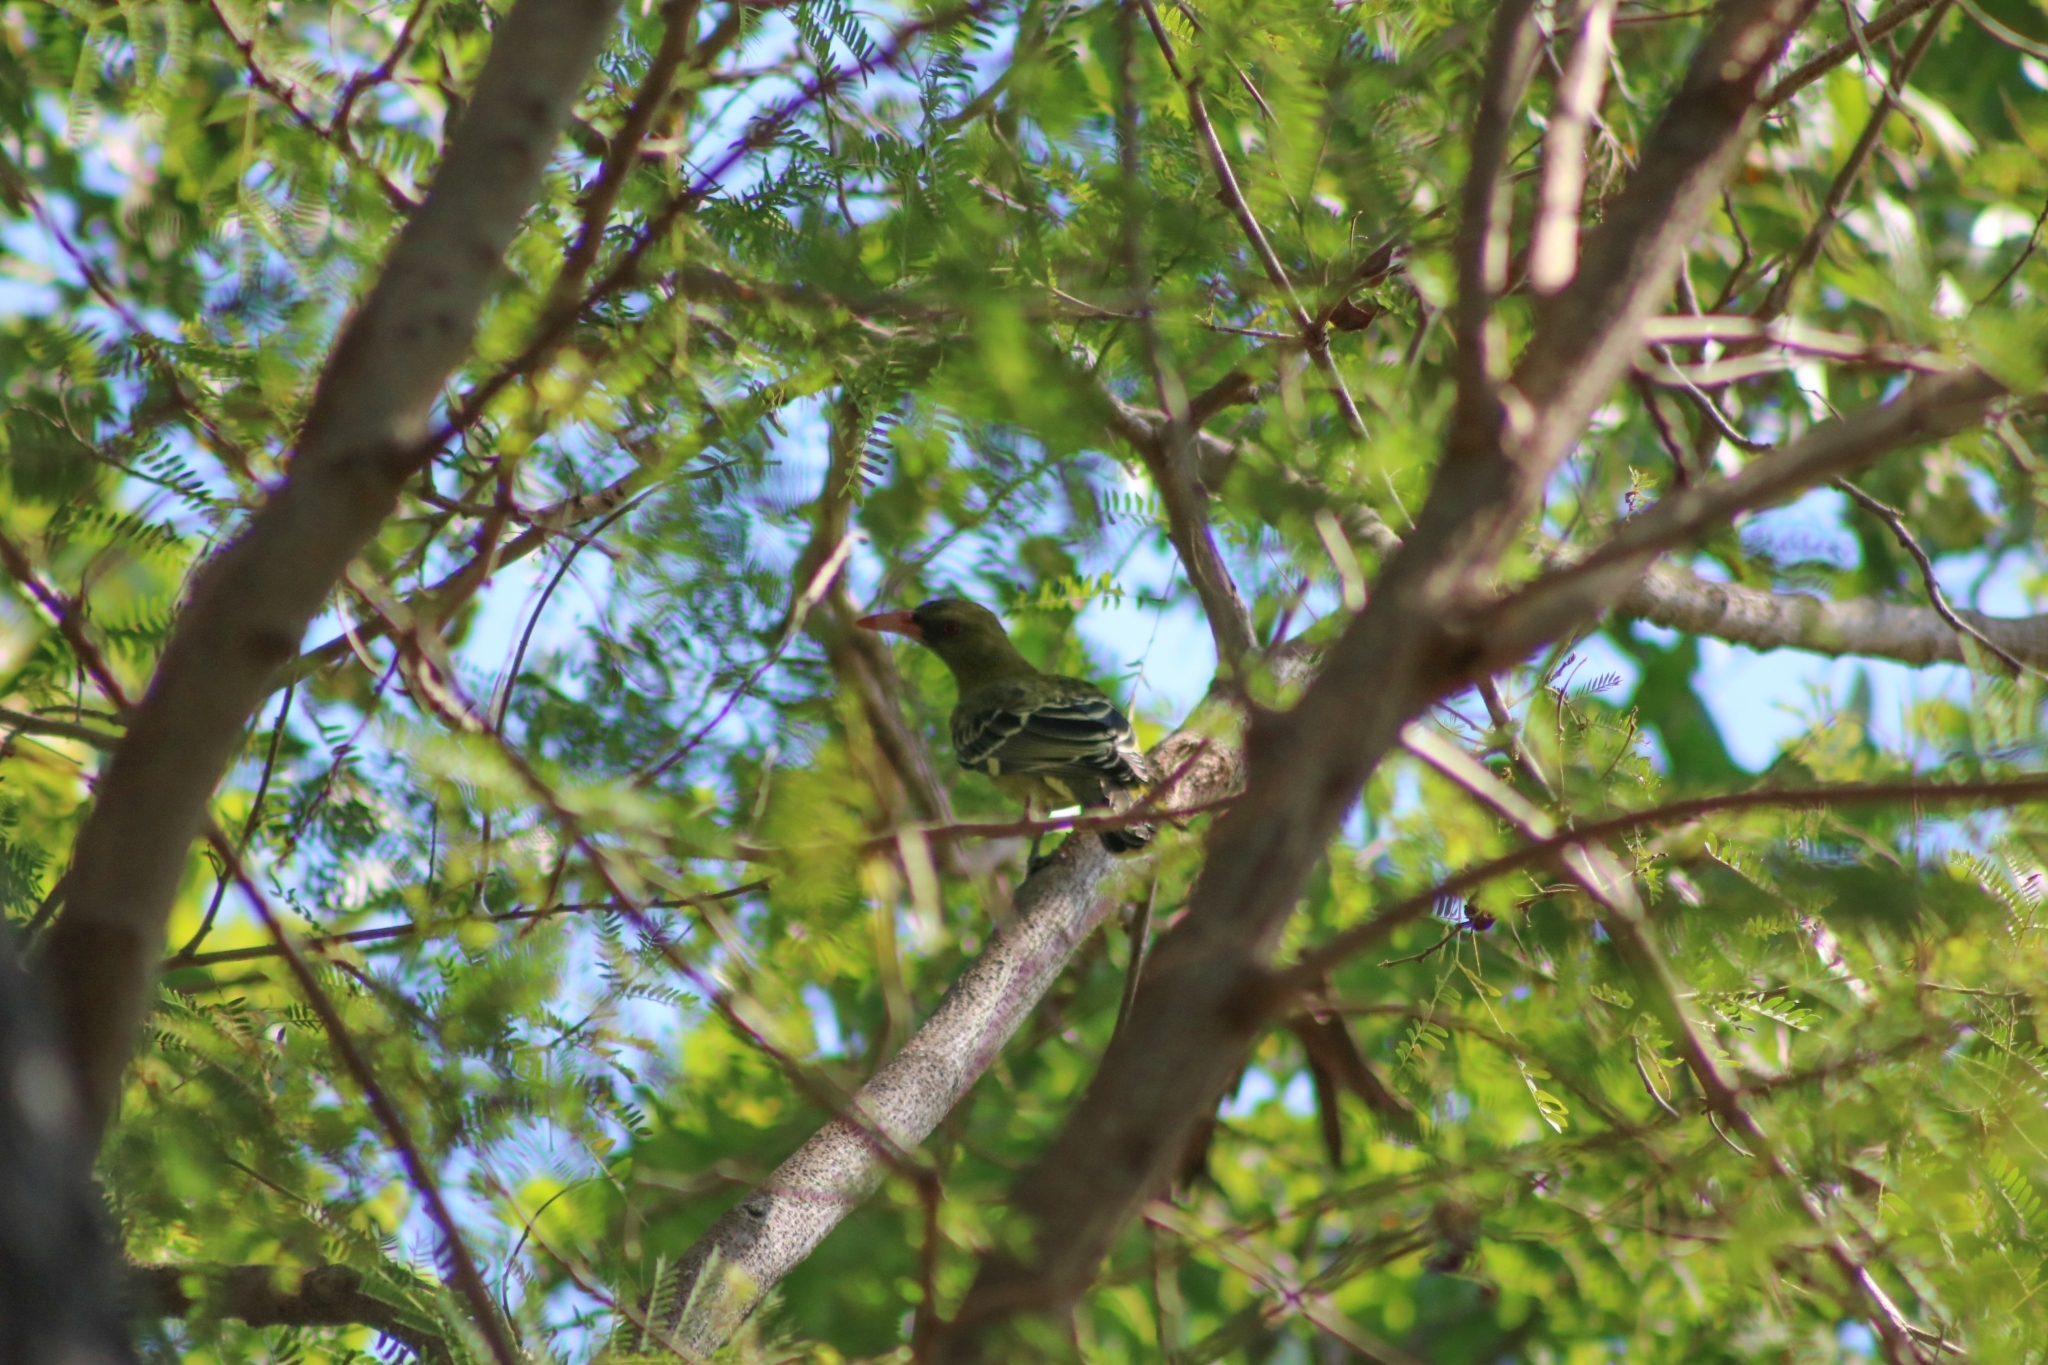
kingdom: Animalia
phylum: Chordata
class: Aves
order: Passeriformes
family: Oriolidae
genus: Oriolus
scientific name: Oriolus flavocinctus
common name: Green oriole
